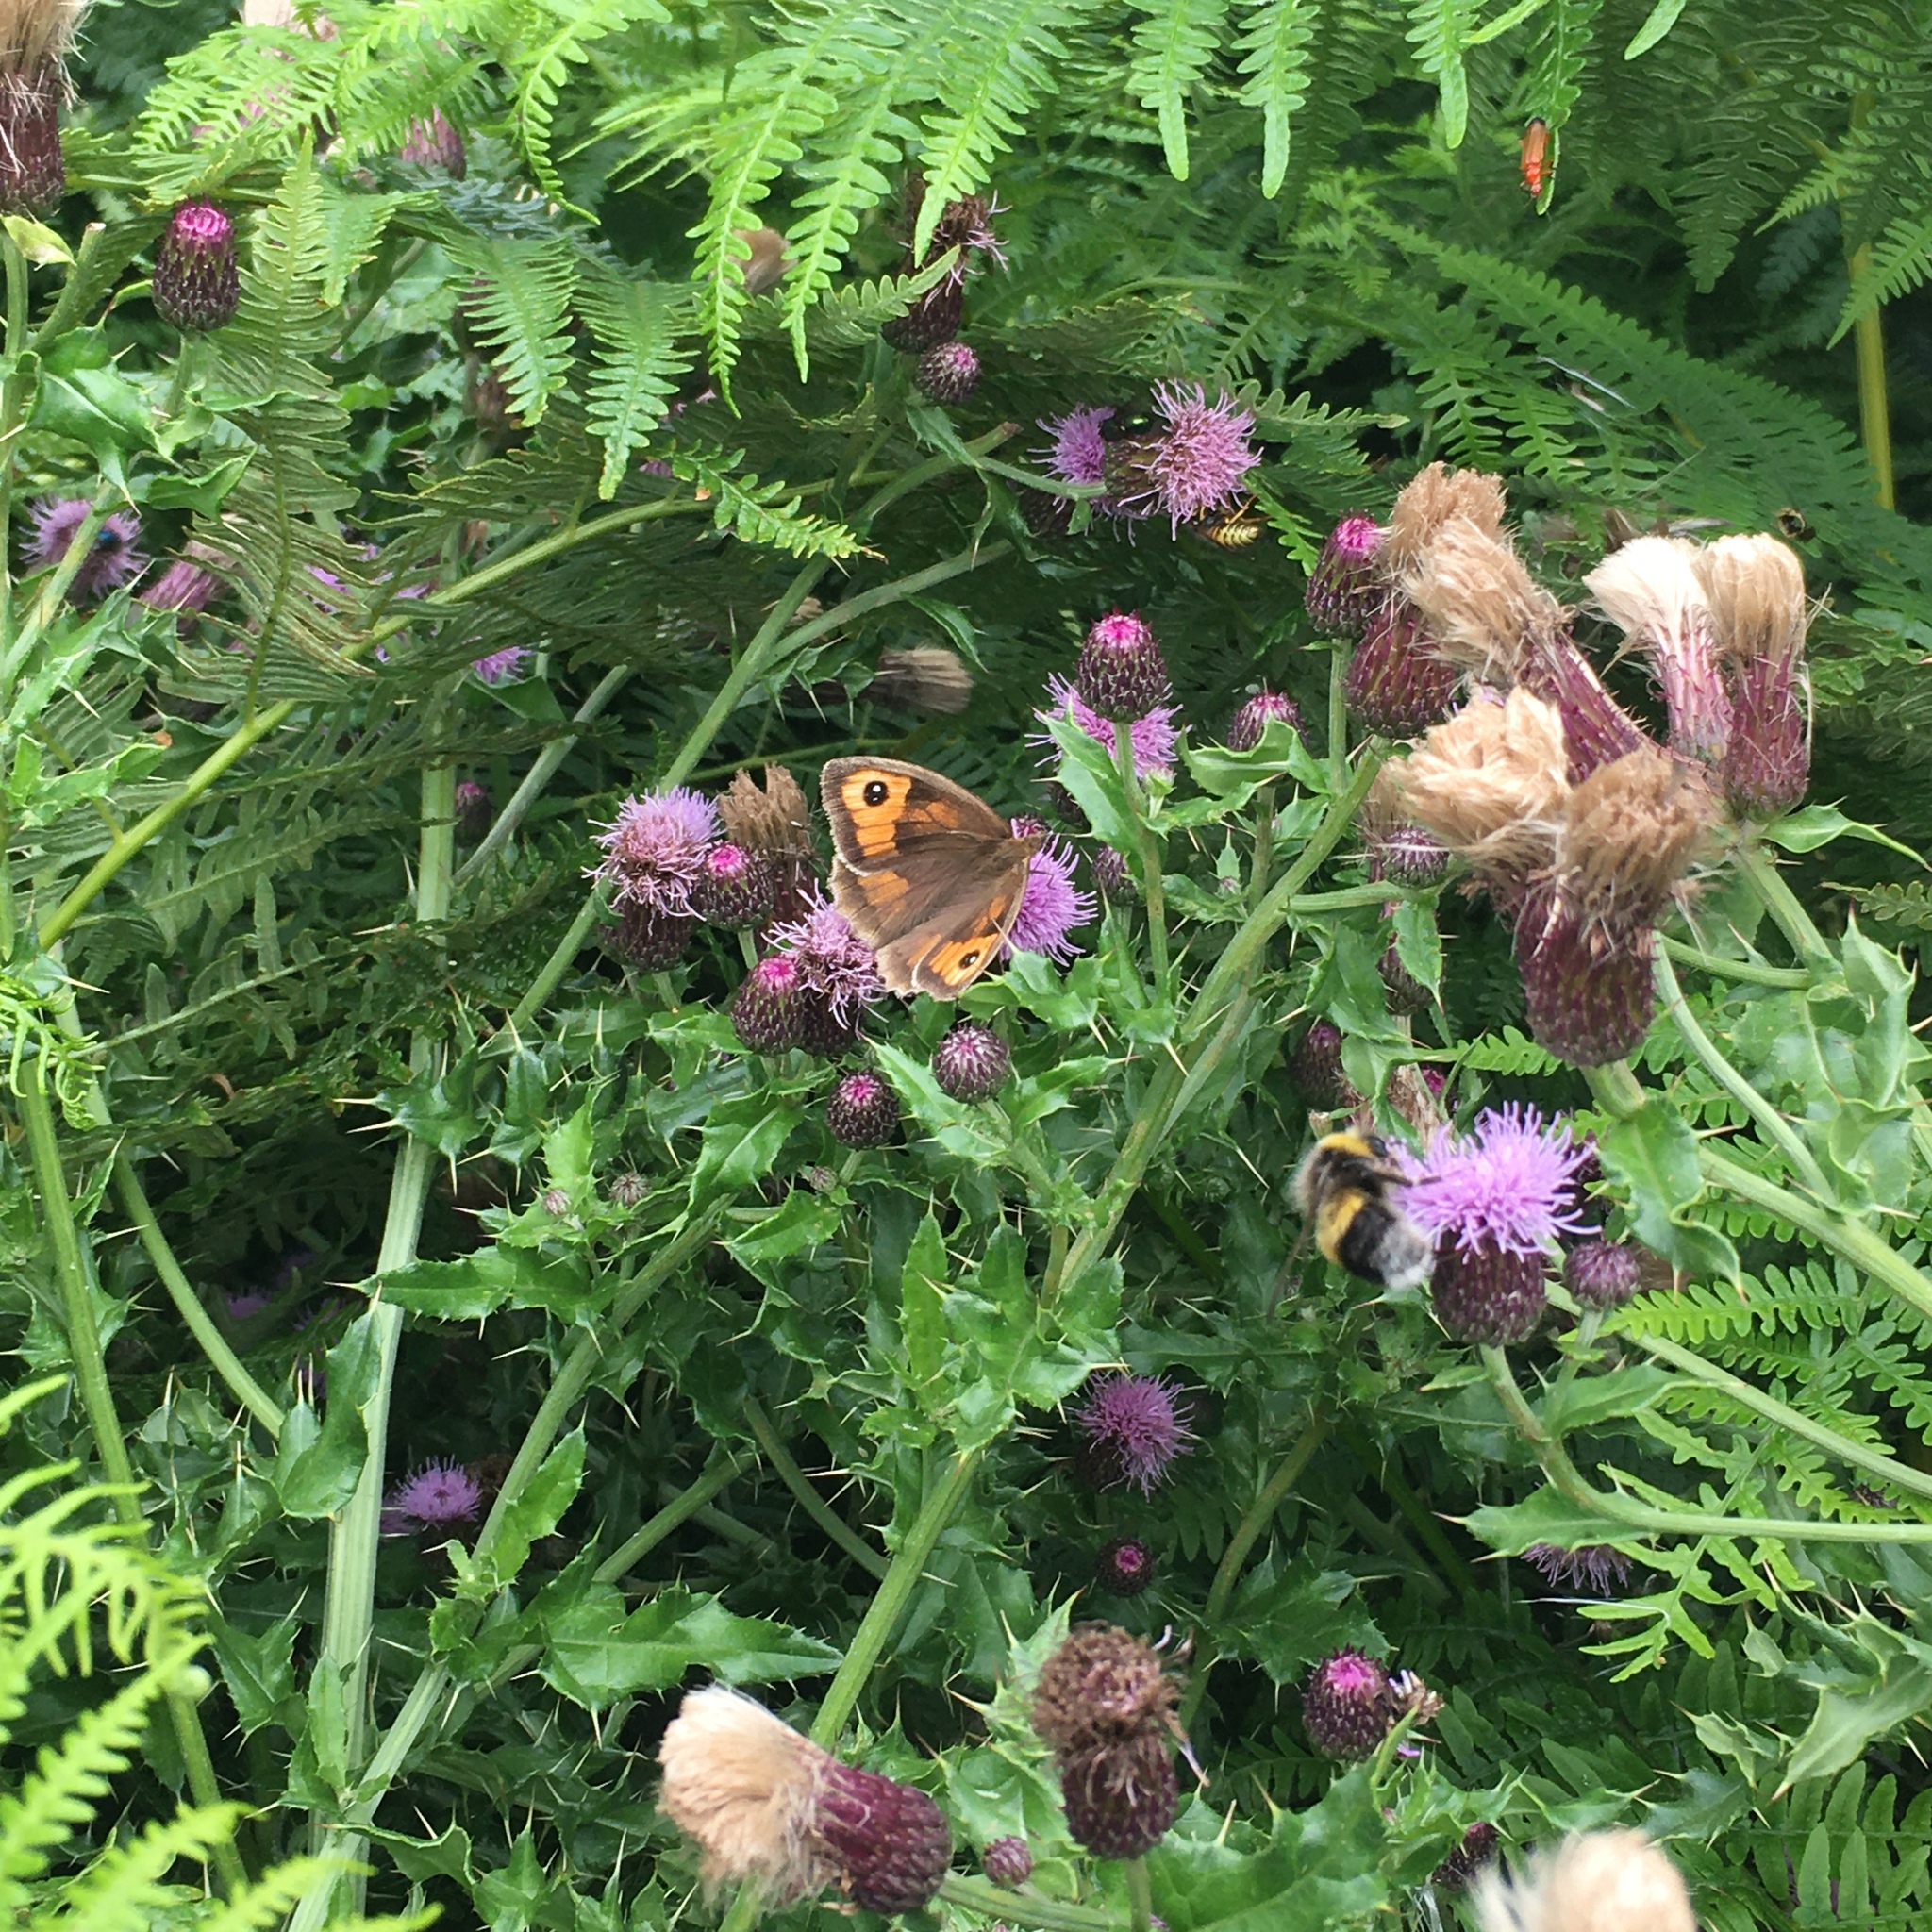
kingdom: Animalia
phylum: Arthropoda
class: Insecta
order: Lepidoptera
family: Nymphalidae
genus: Maniola
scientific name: Maniola jurtina
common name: Meadow brown
